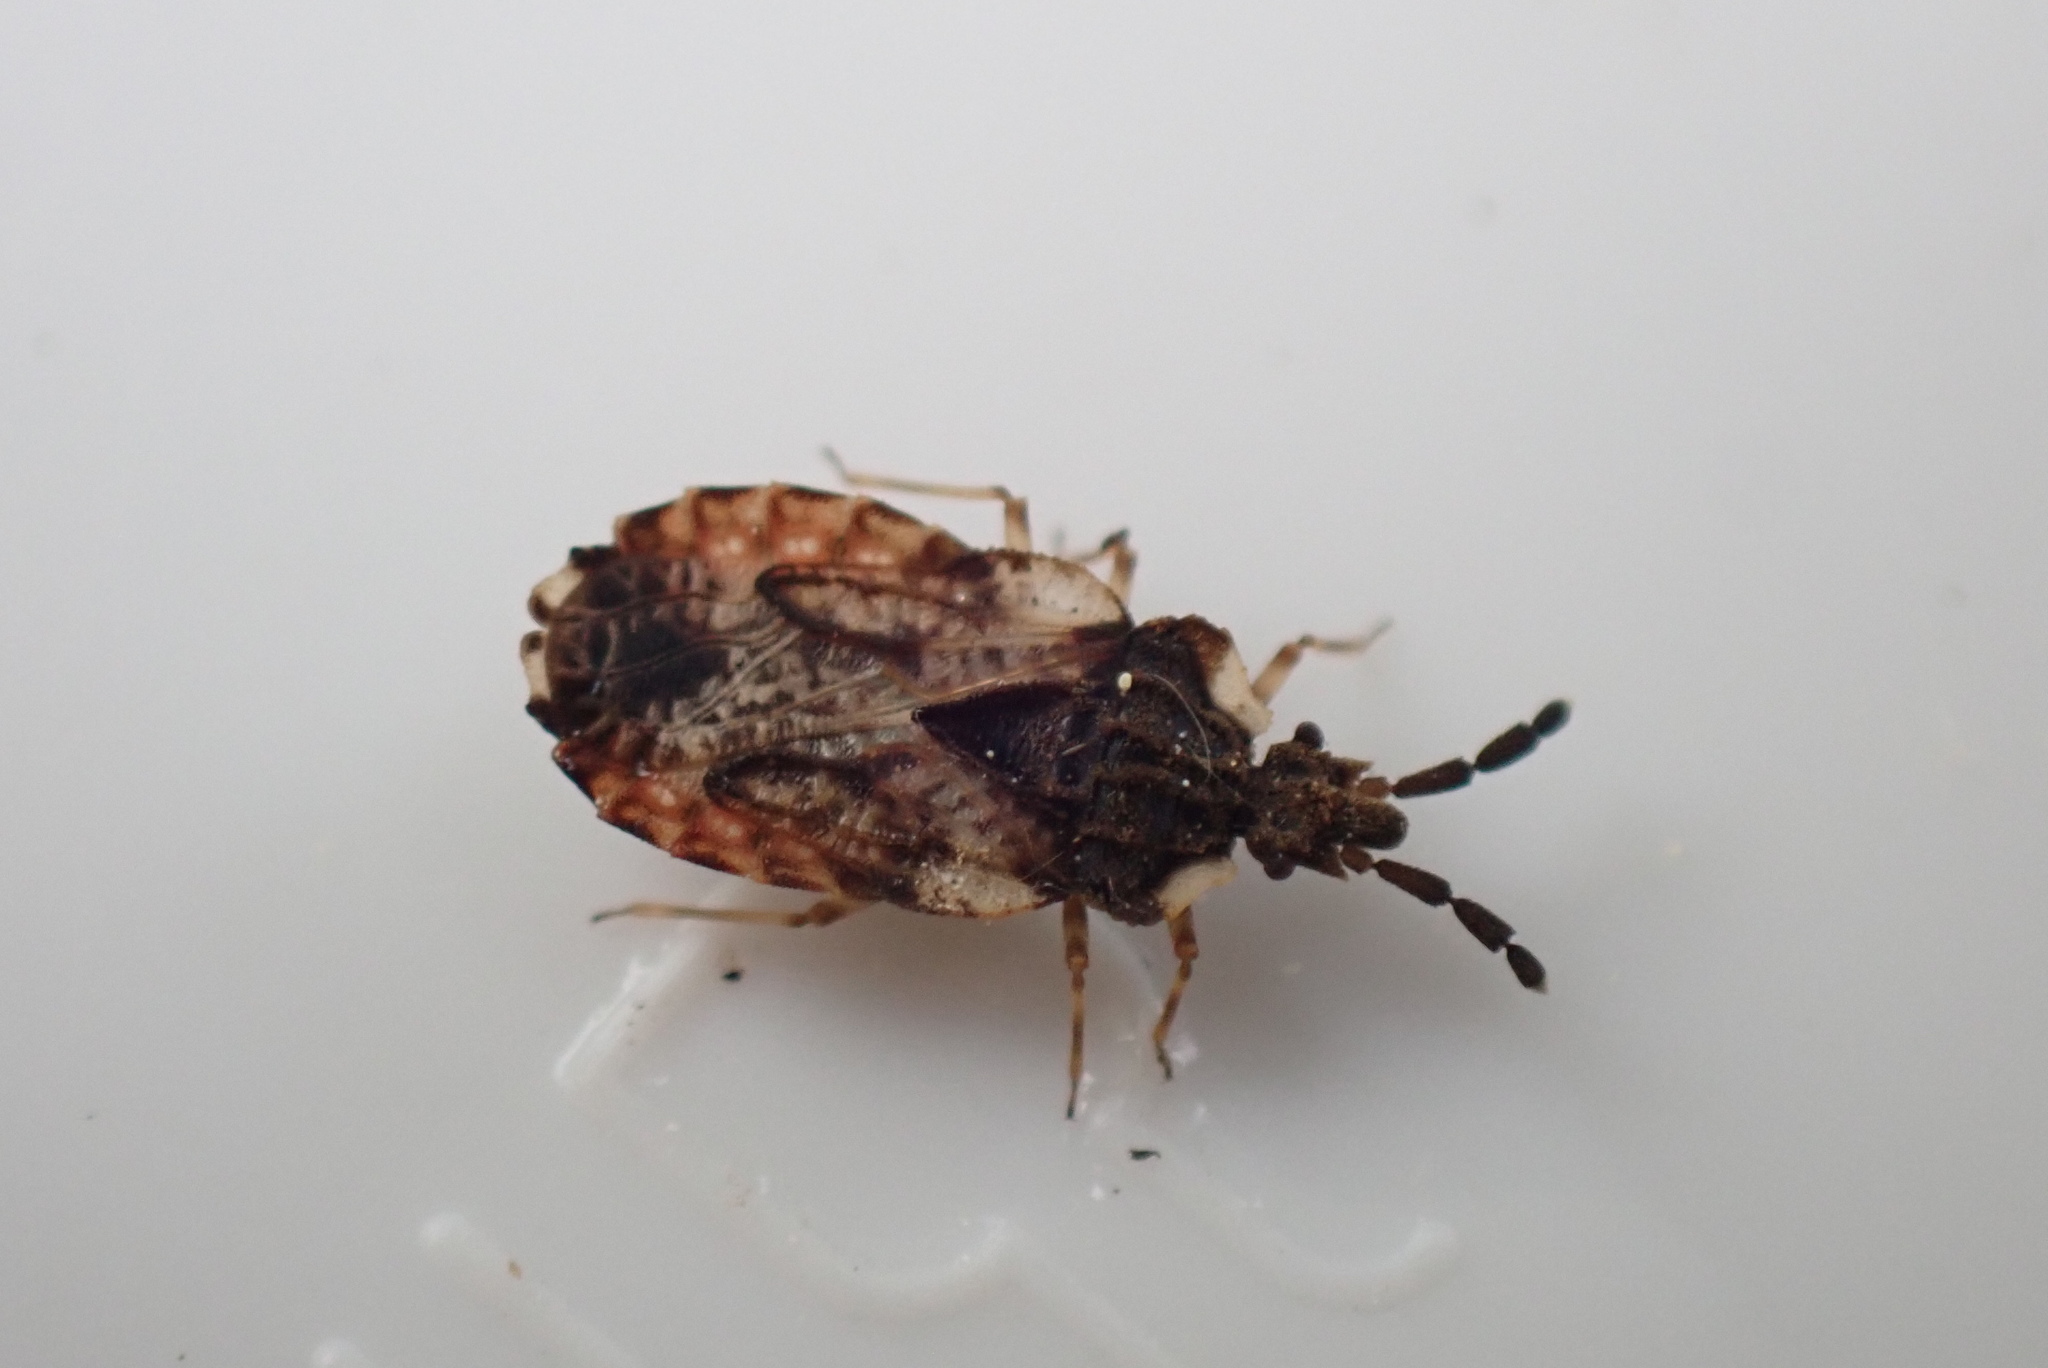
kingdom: Animalia
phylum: Arthropoda
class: Insecta
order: Hemiptera
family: Aradidae
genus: Aradus
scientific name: Aradus depressus
